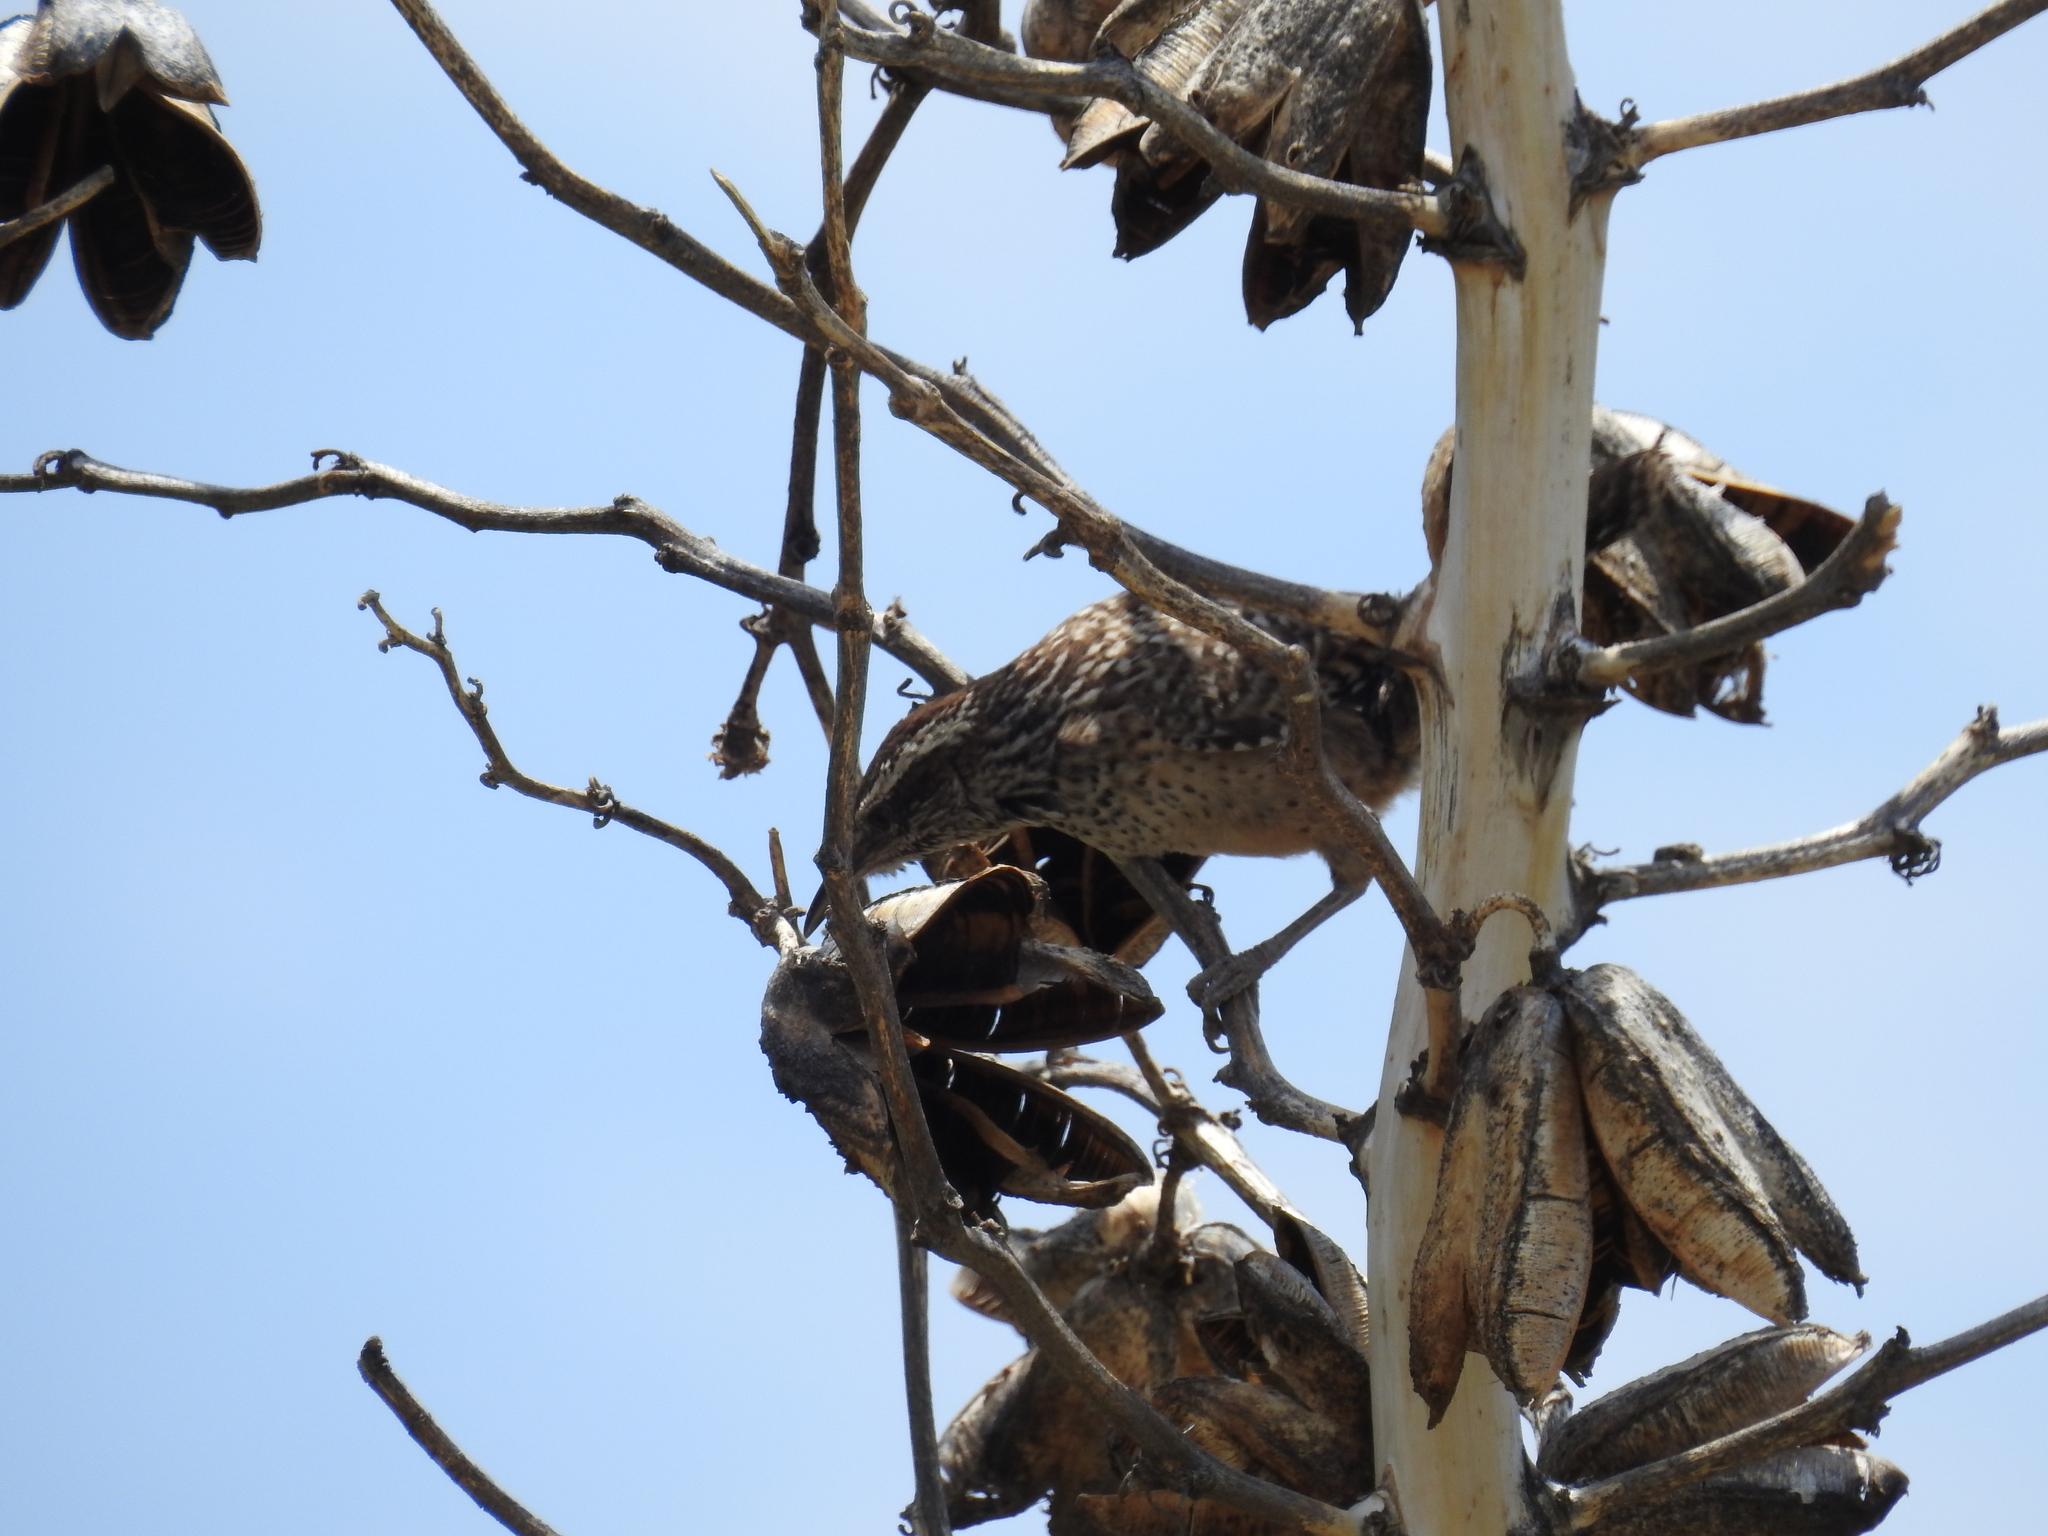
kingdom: Animalia
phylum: Chordata
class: Aves
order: Passeriformes
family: Troglodytidae
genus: Campylorhynchus
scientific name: Campylorhynchus brunneicapillus
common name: Cactus wren
